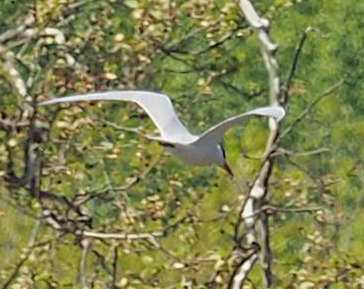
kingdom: Animalia
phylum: Chordata
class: Aves
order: Charadriiformes
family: Laridae
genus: Hydroprogne
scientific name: Hydroprogne caspia
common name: Caspian tern
